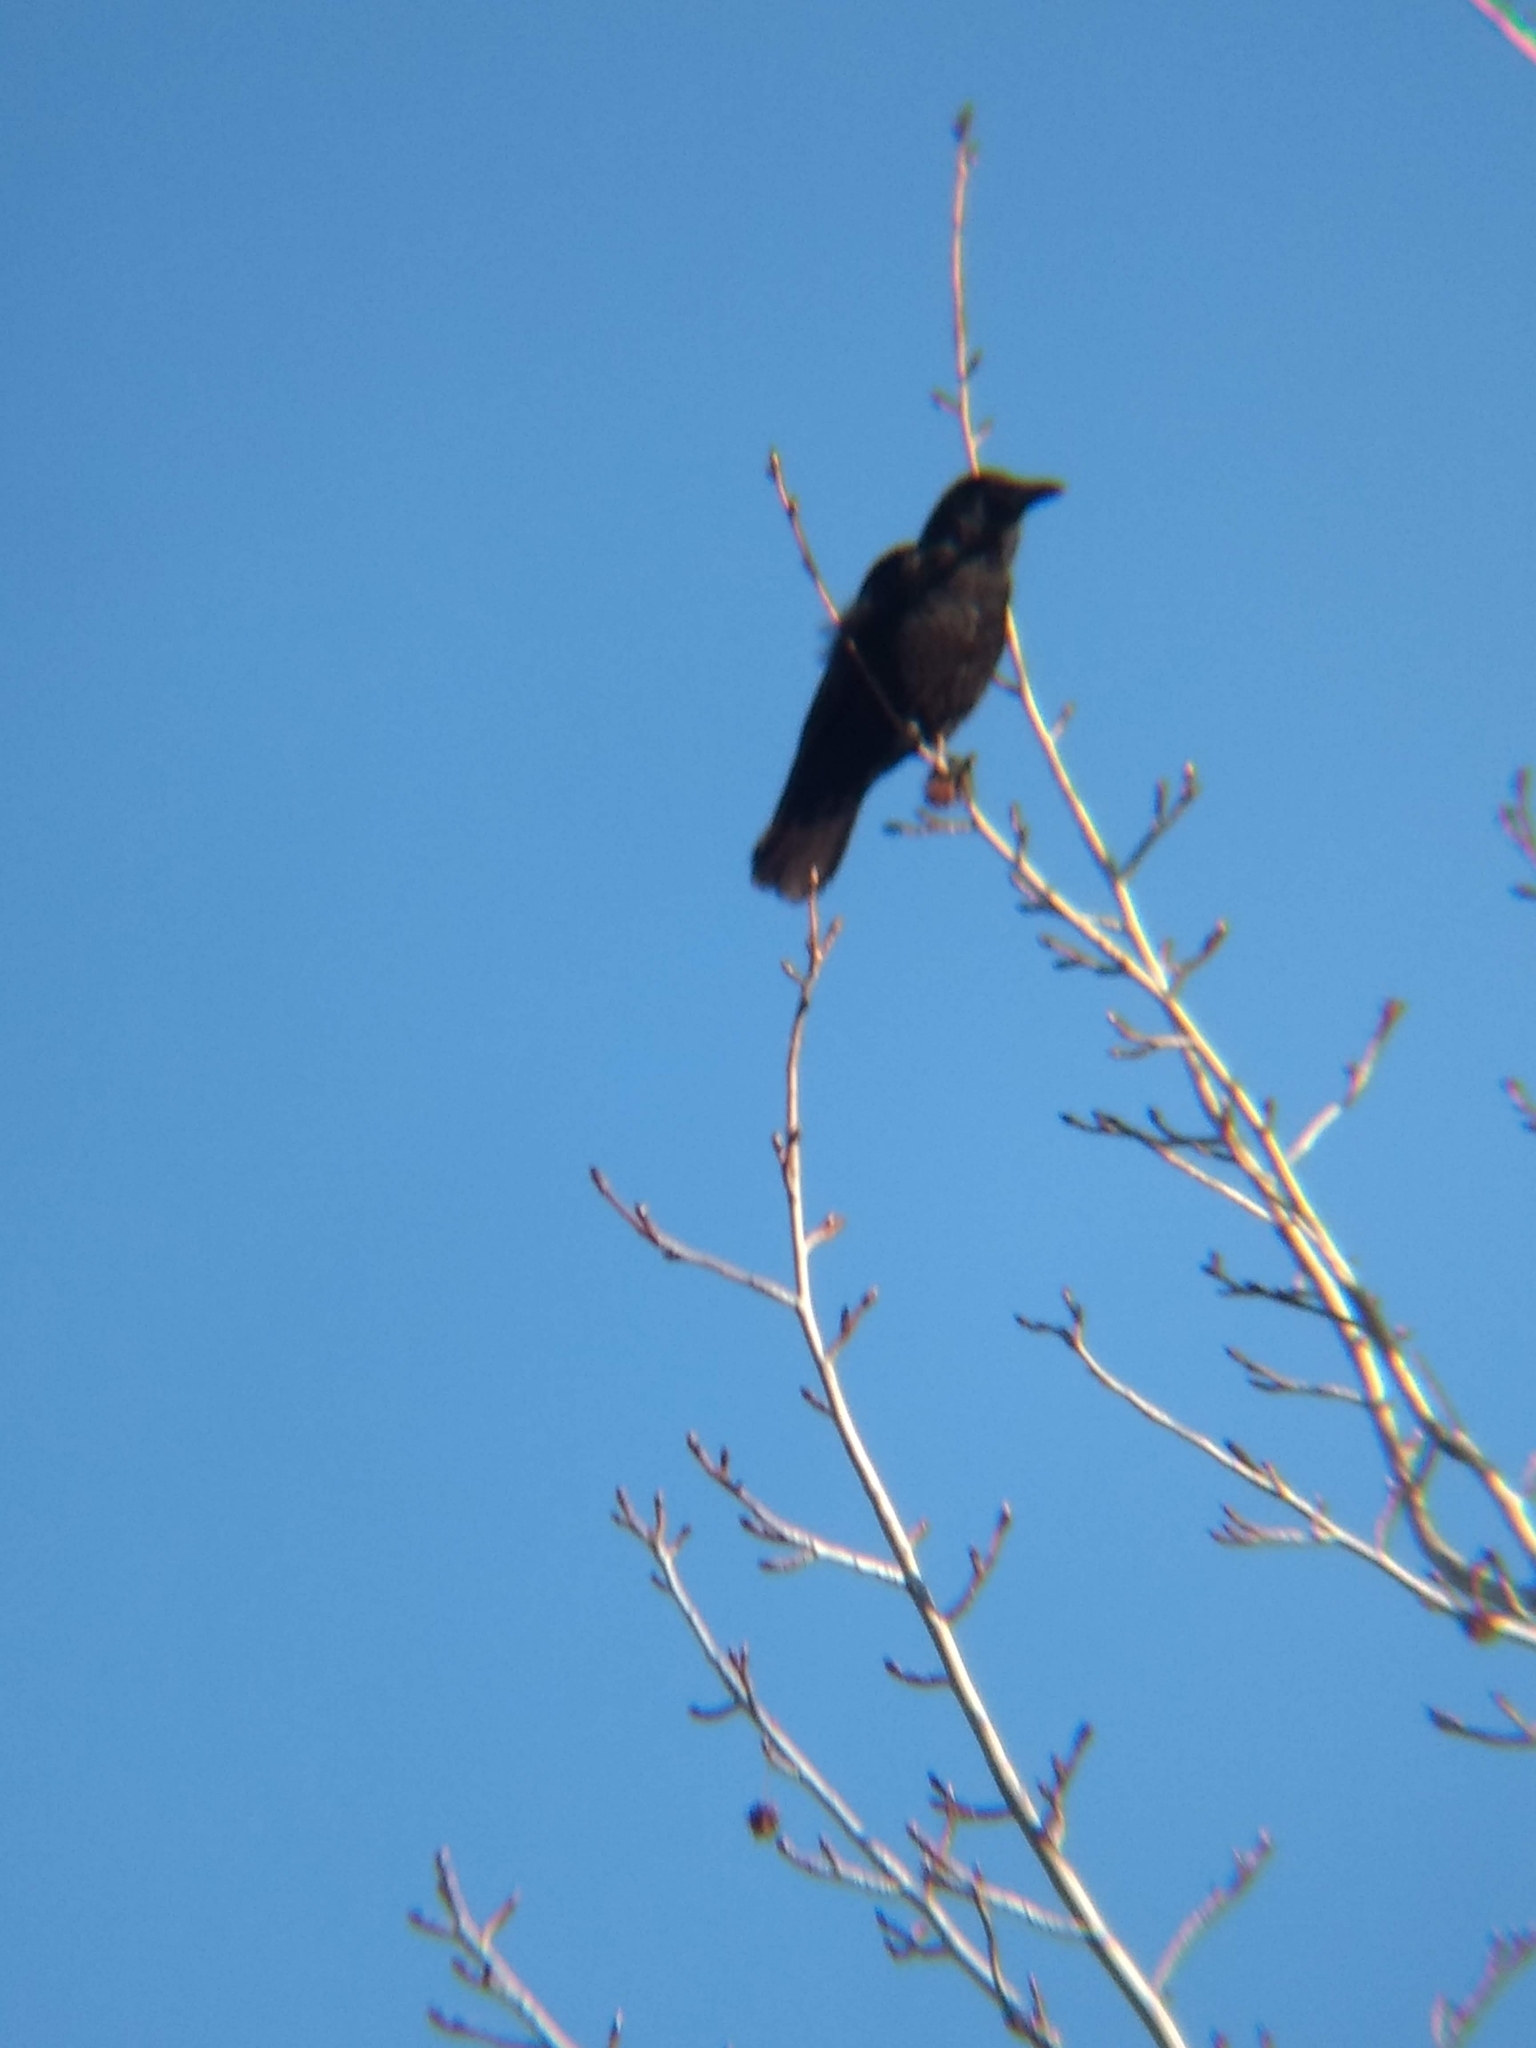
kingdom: Animalia
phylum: Chordata
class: Aves
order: Passeriformes
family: Corvidae
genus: Corvus
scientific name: Corvus brachyrhynchos
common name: American crow
